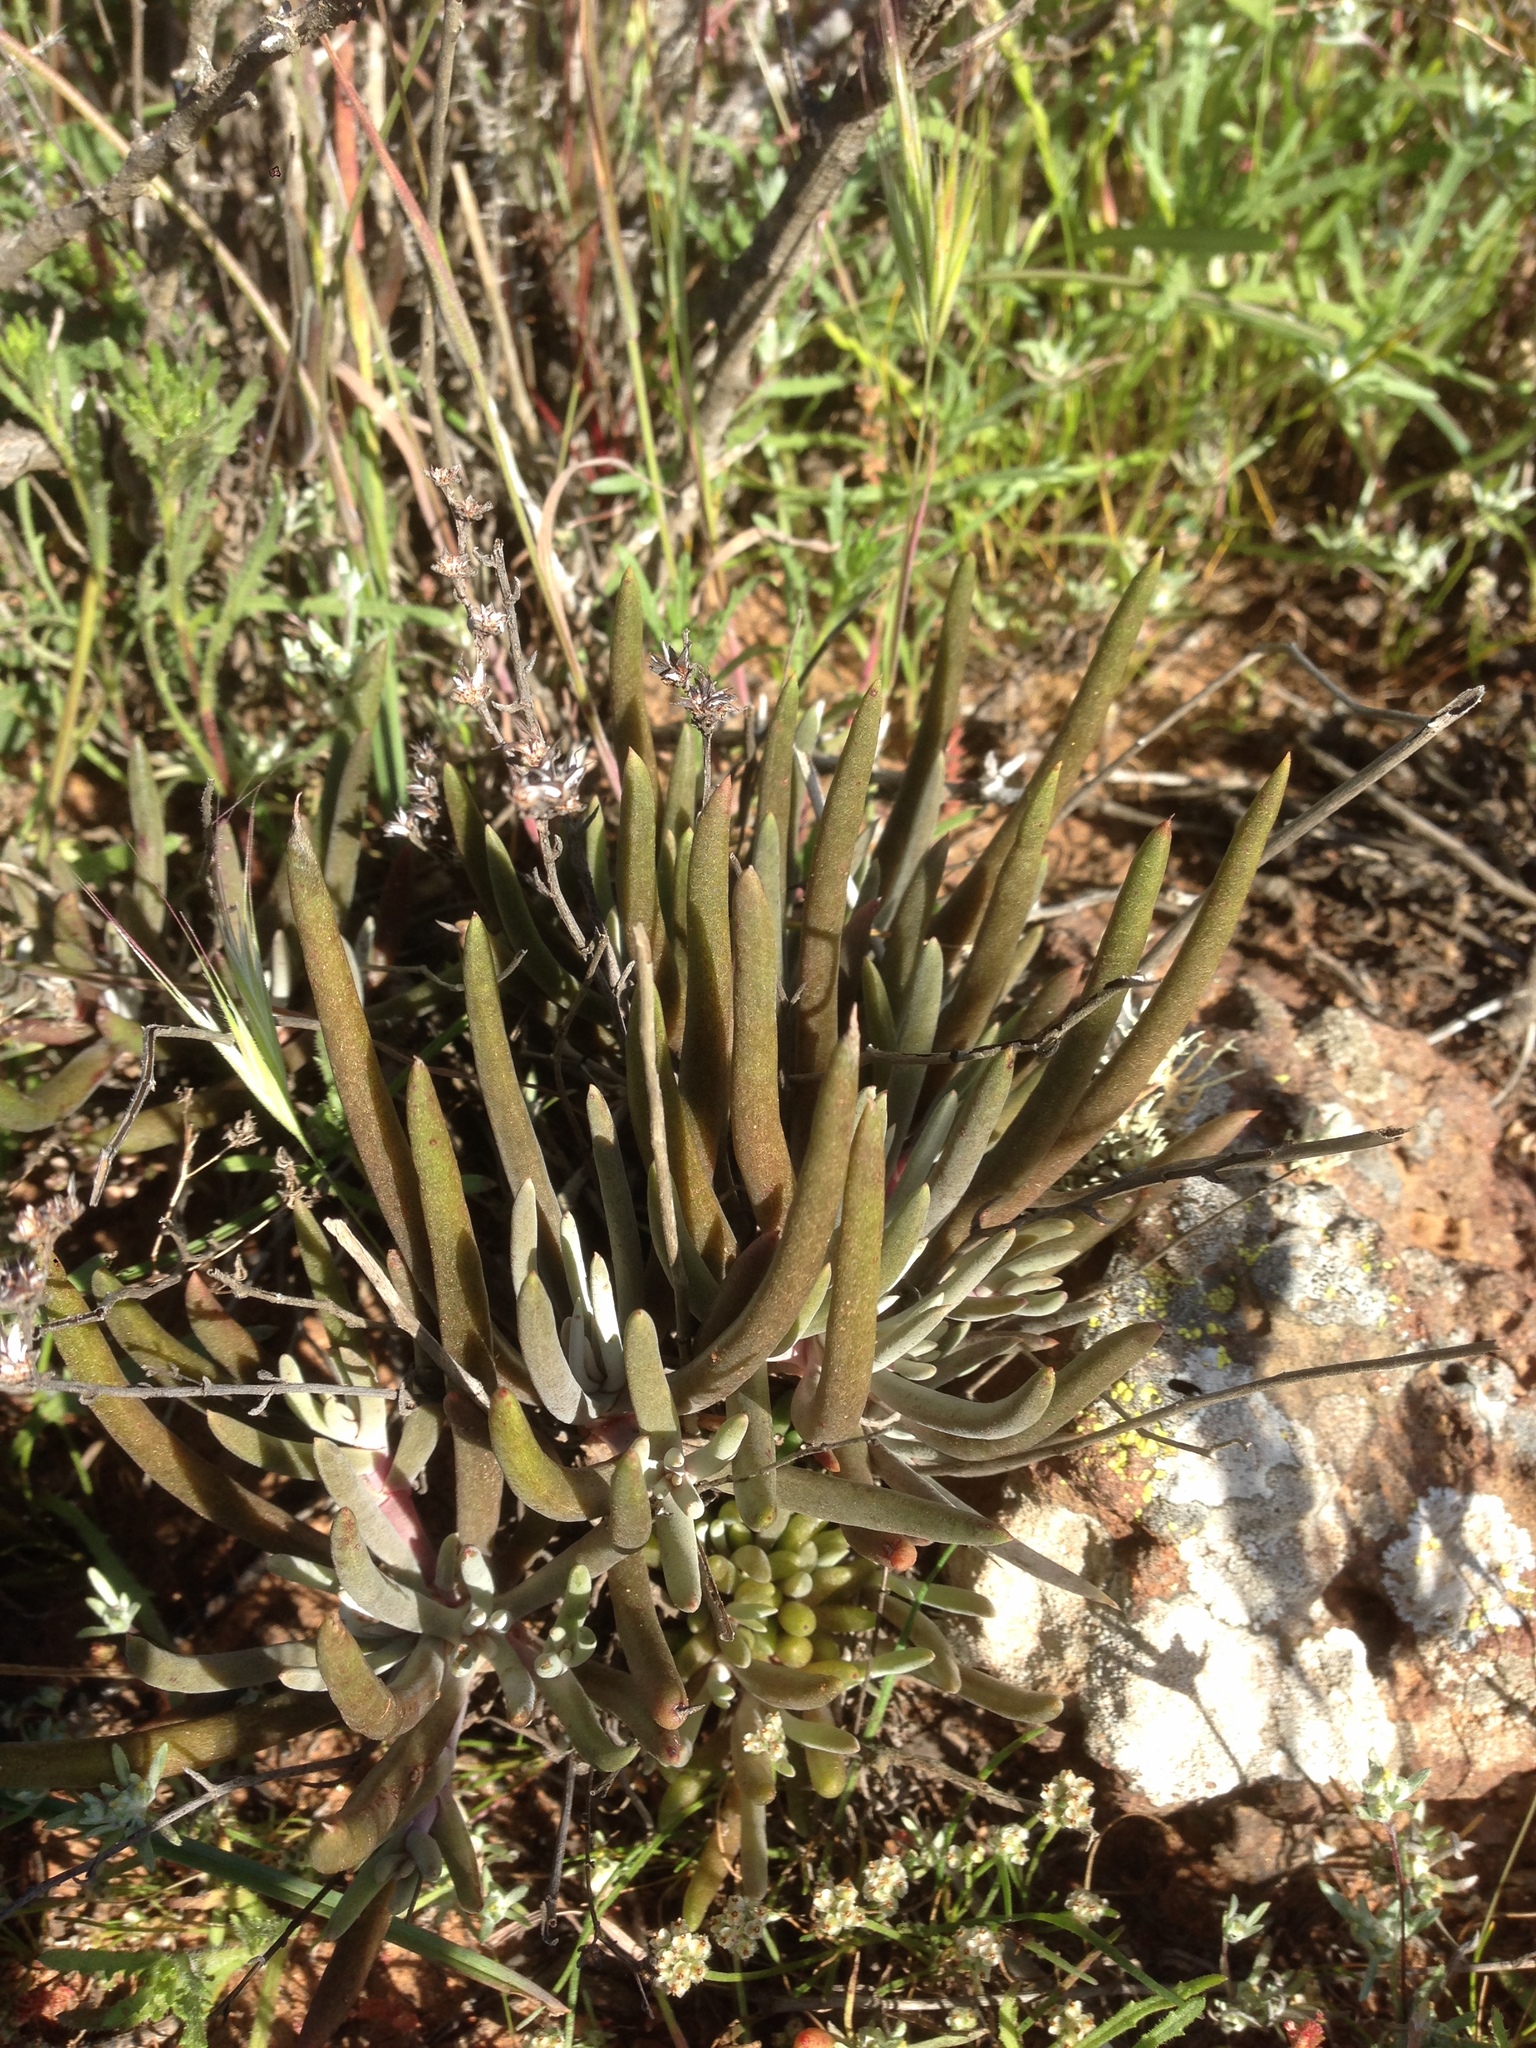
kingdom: Plantae
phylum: Tracheophyta
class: Magnoliopsida
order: Saxifragales
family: Crassulaceae
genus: Dudleya
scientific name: Dudleya attenuata
